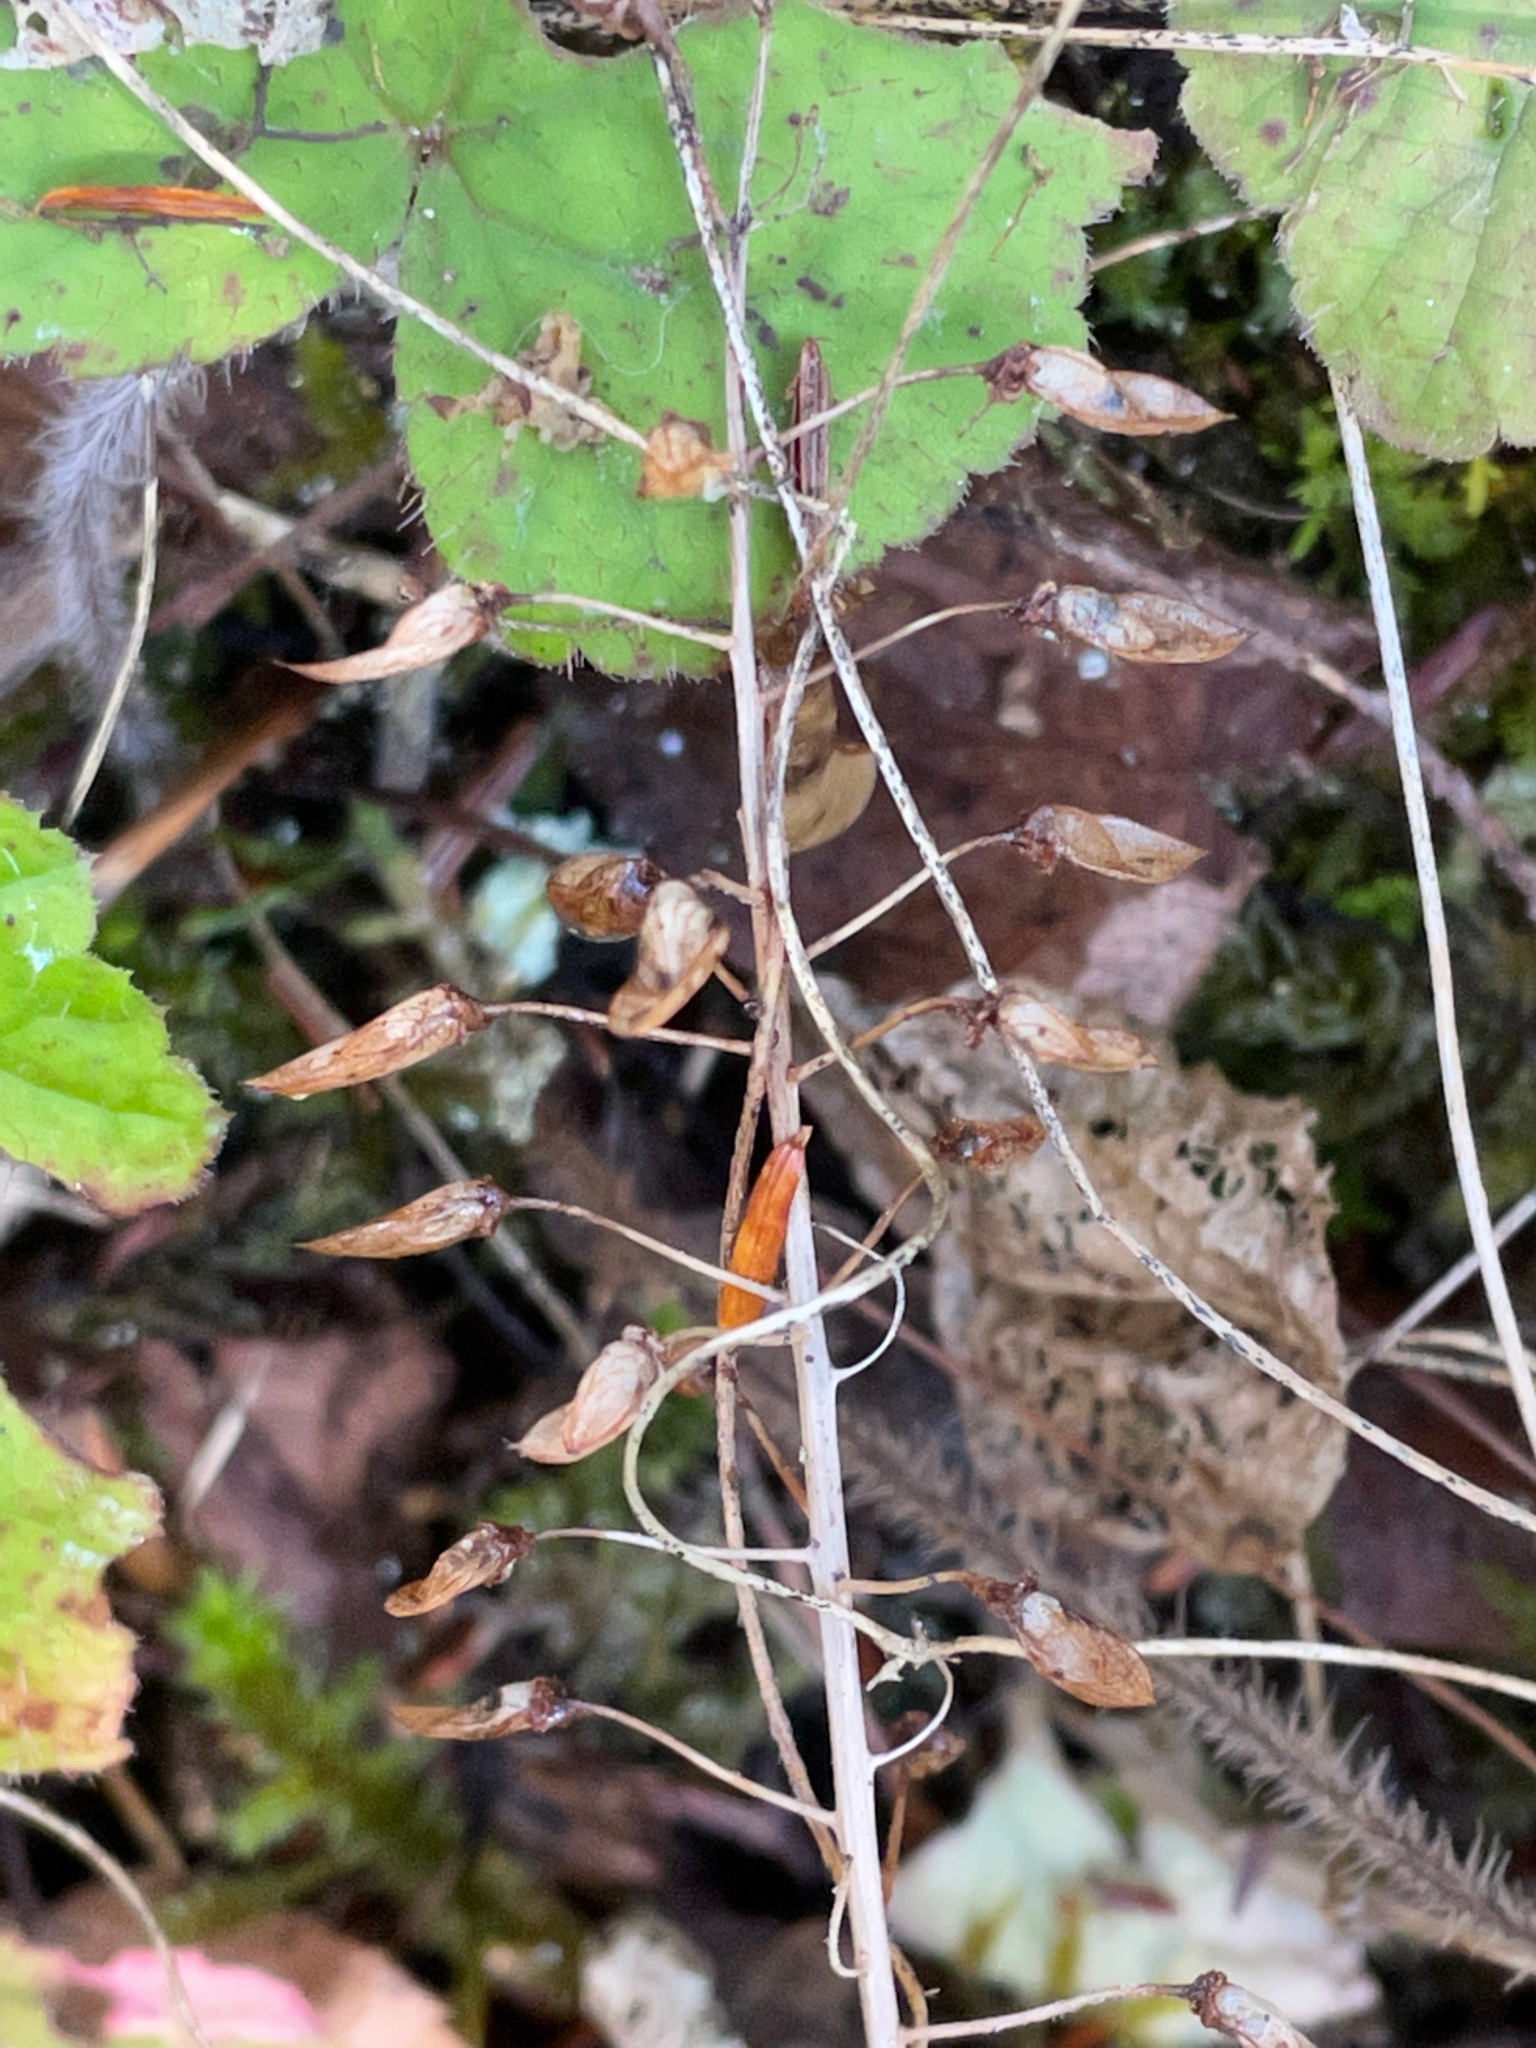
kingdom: Plantae
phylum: Tracheophyta
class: Magnoliopsida
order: Saxifragales
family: Saxifragaceae
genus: Tiarella
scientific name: Tiarella stolonifera
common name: Stoloniferous foamflower
